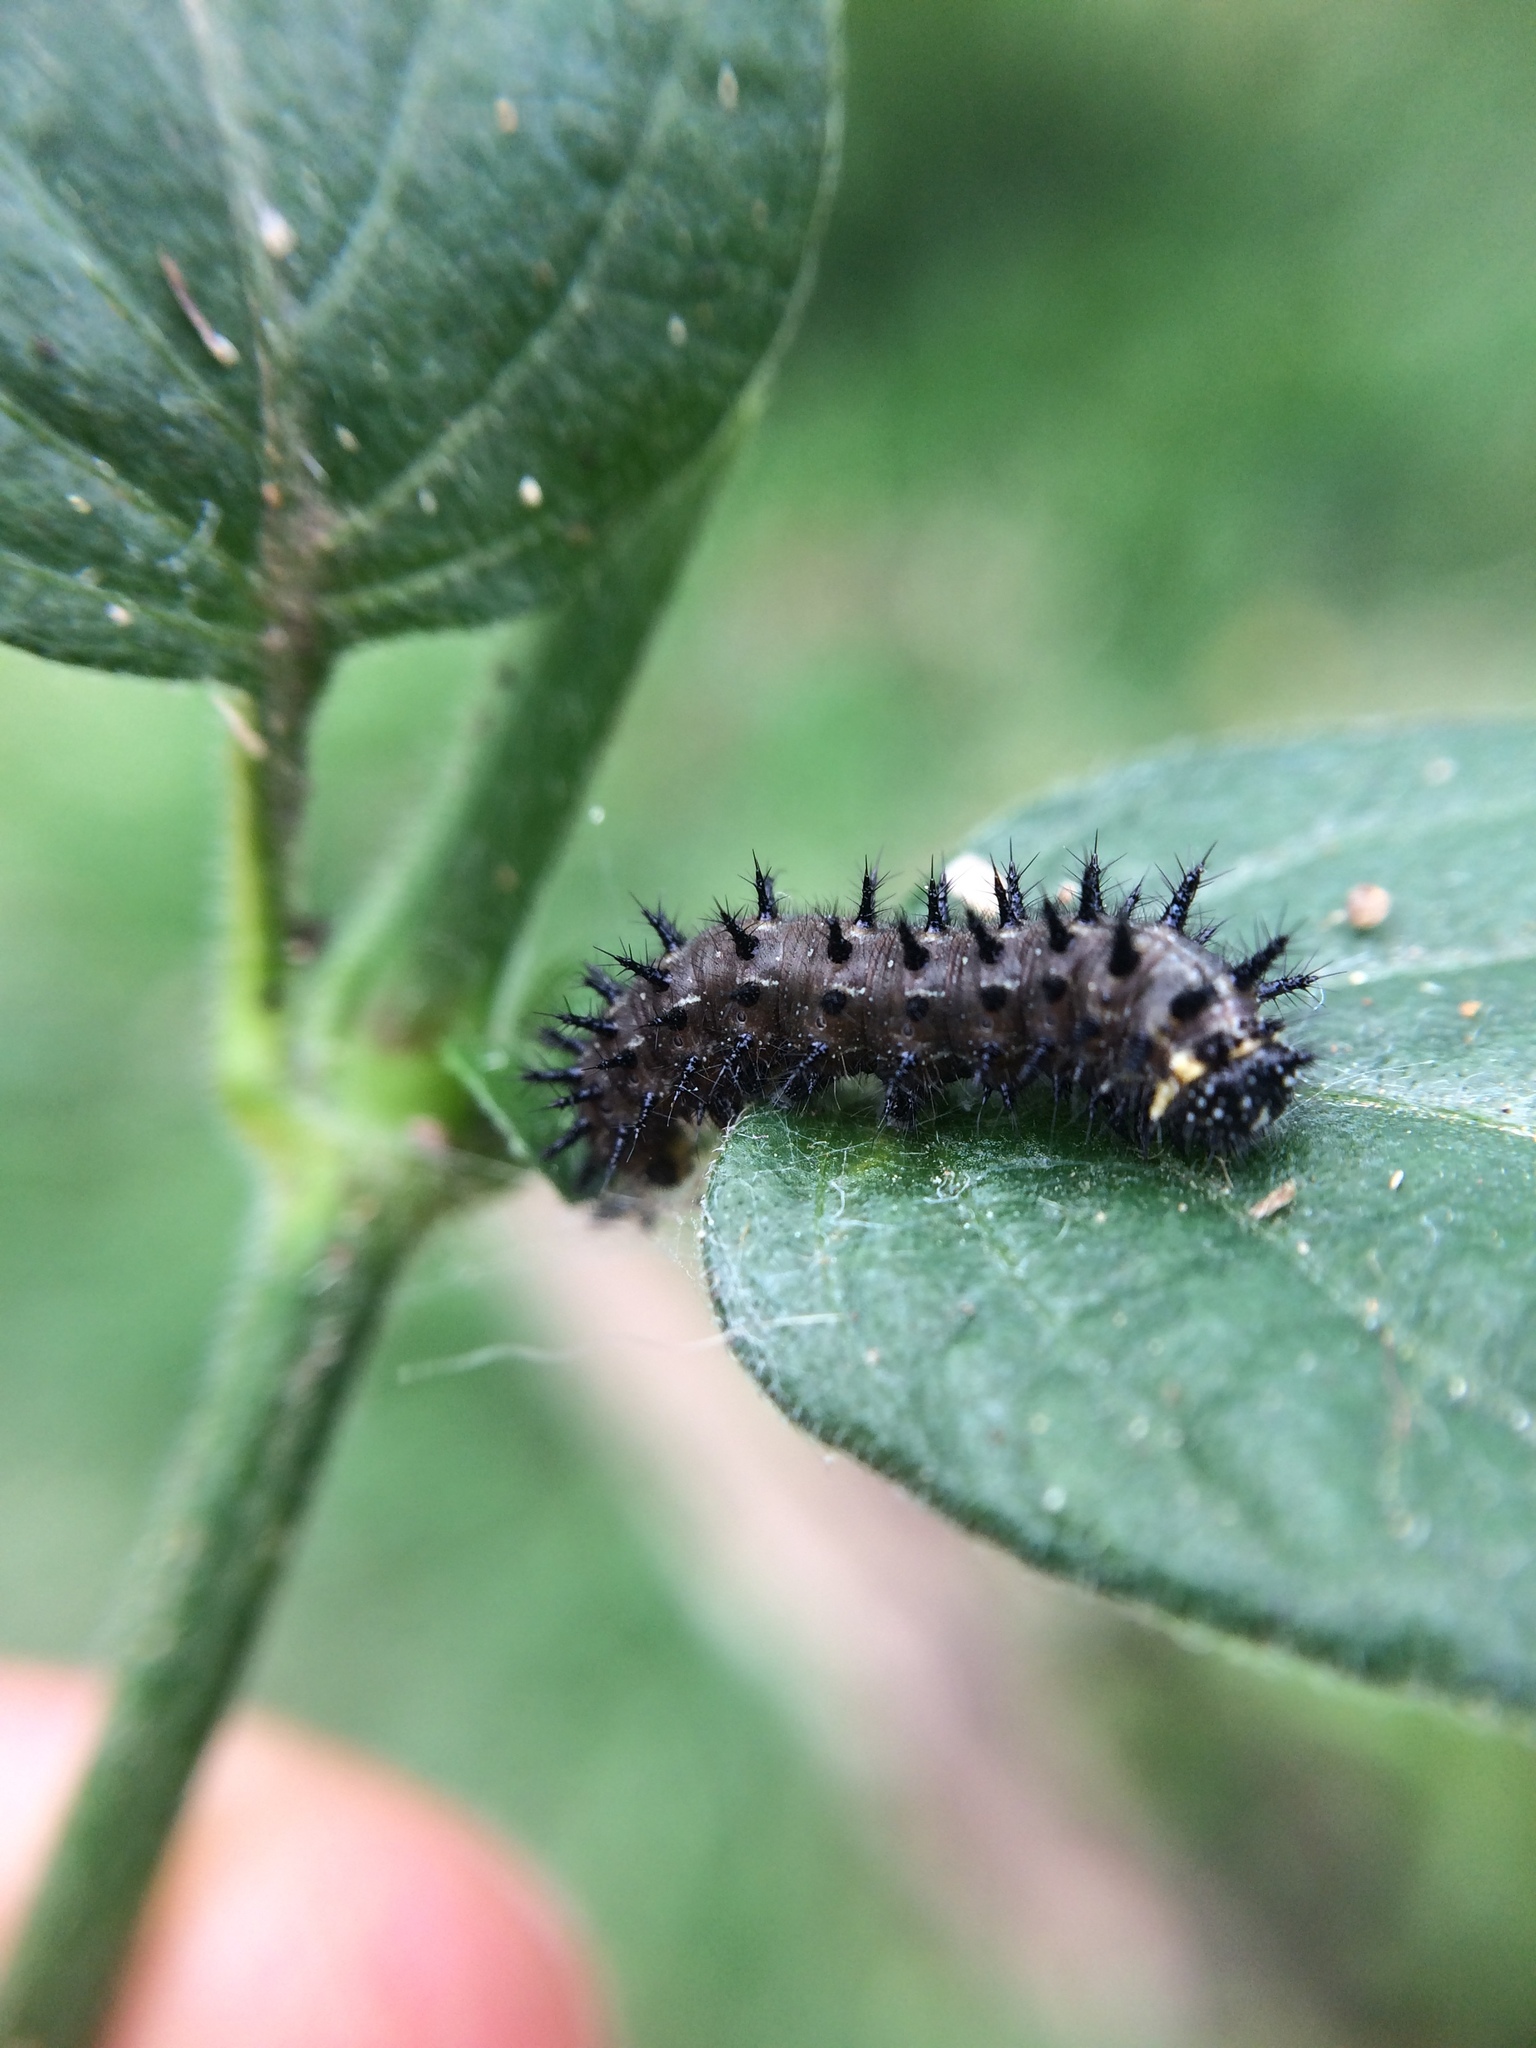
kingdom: Animalia
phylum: Arthropoda
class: Insecta
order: Lepidoptera
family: Nymphalidae
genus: Junonia
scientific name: Junonia oenone
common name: Dark blue pansy
